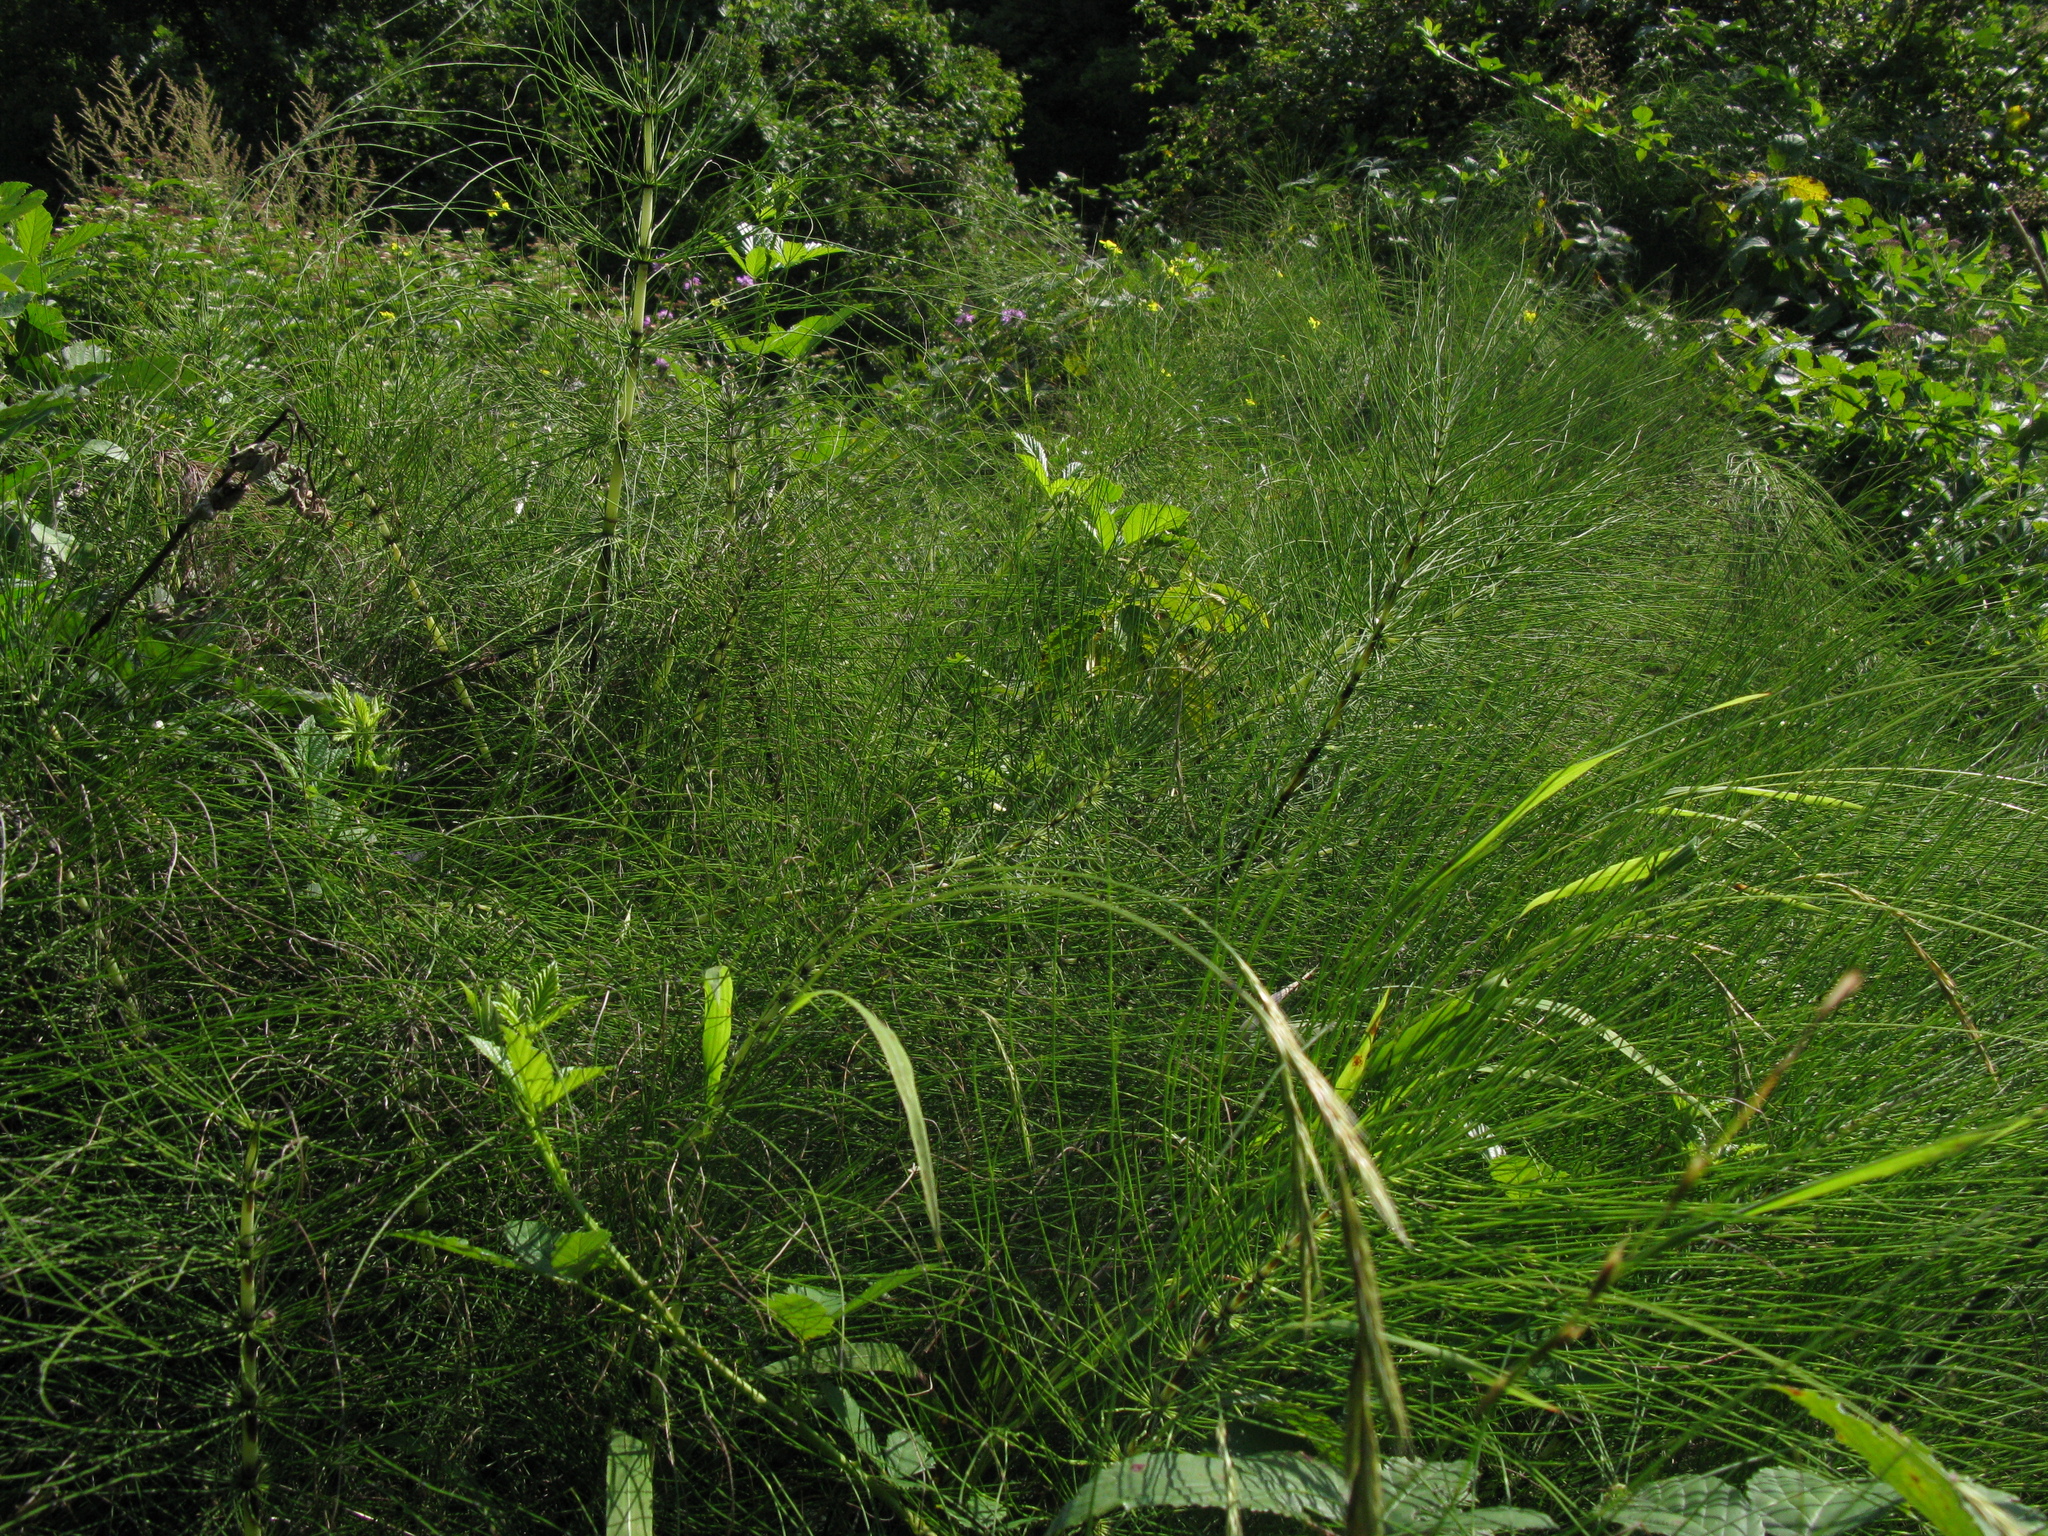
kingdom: Plantae
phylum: Tracheophyta
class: Polypodiopsida
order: Equisetales
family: Equisetaceae
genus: Equisetum
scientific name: Equisetum telmateia
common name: Great horsetail
